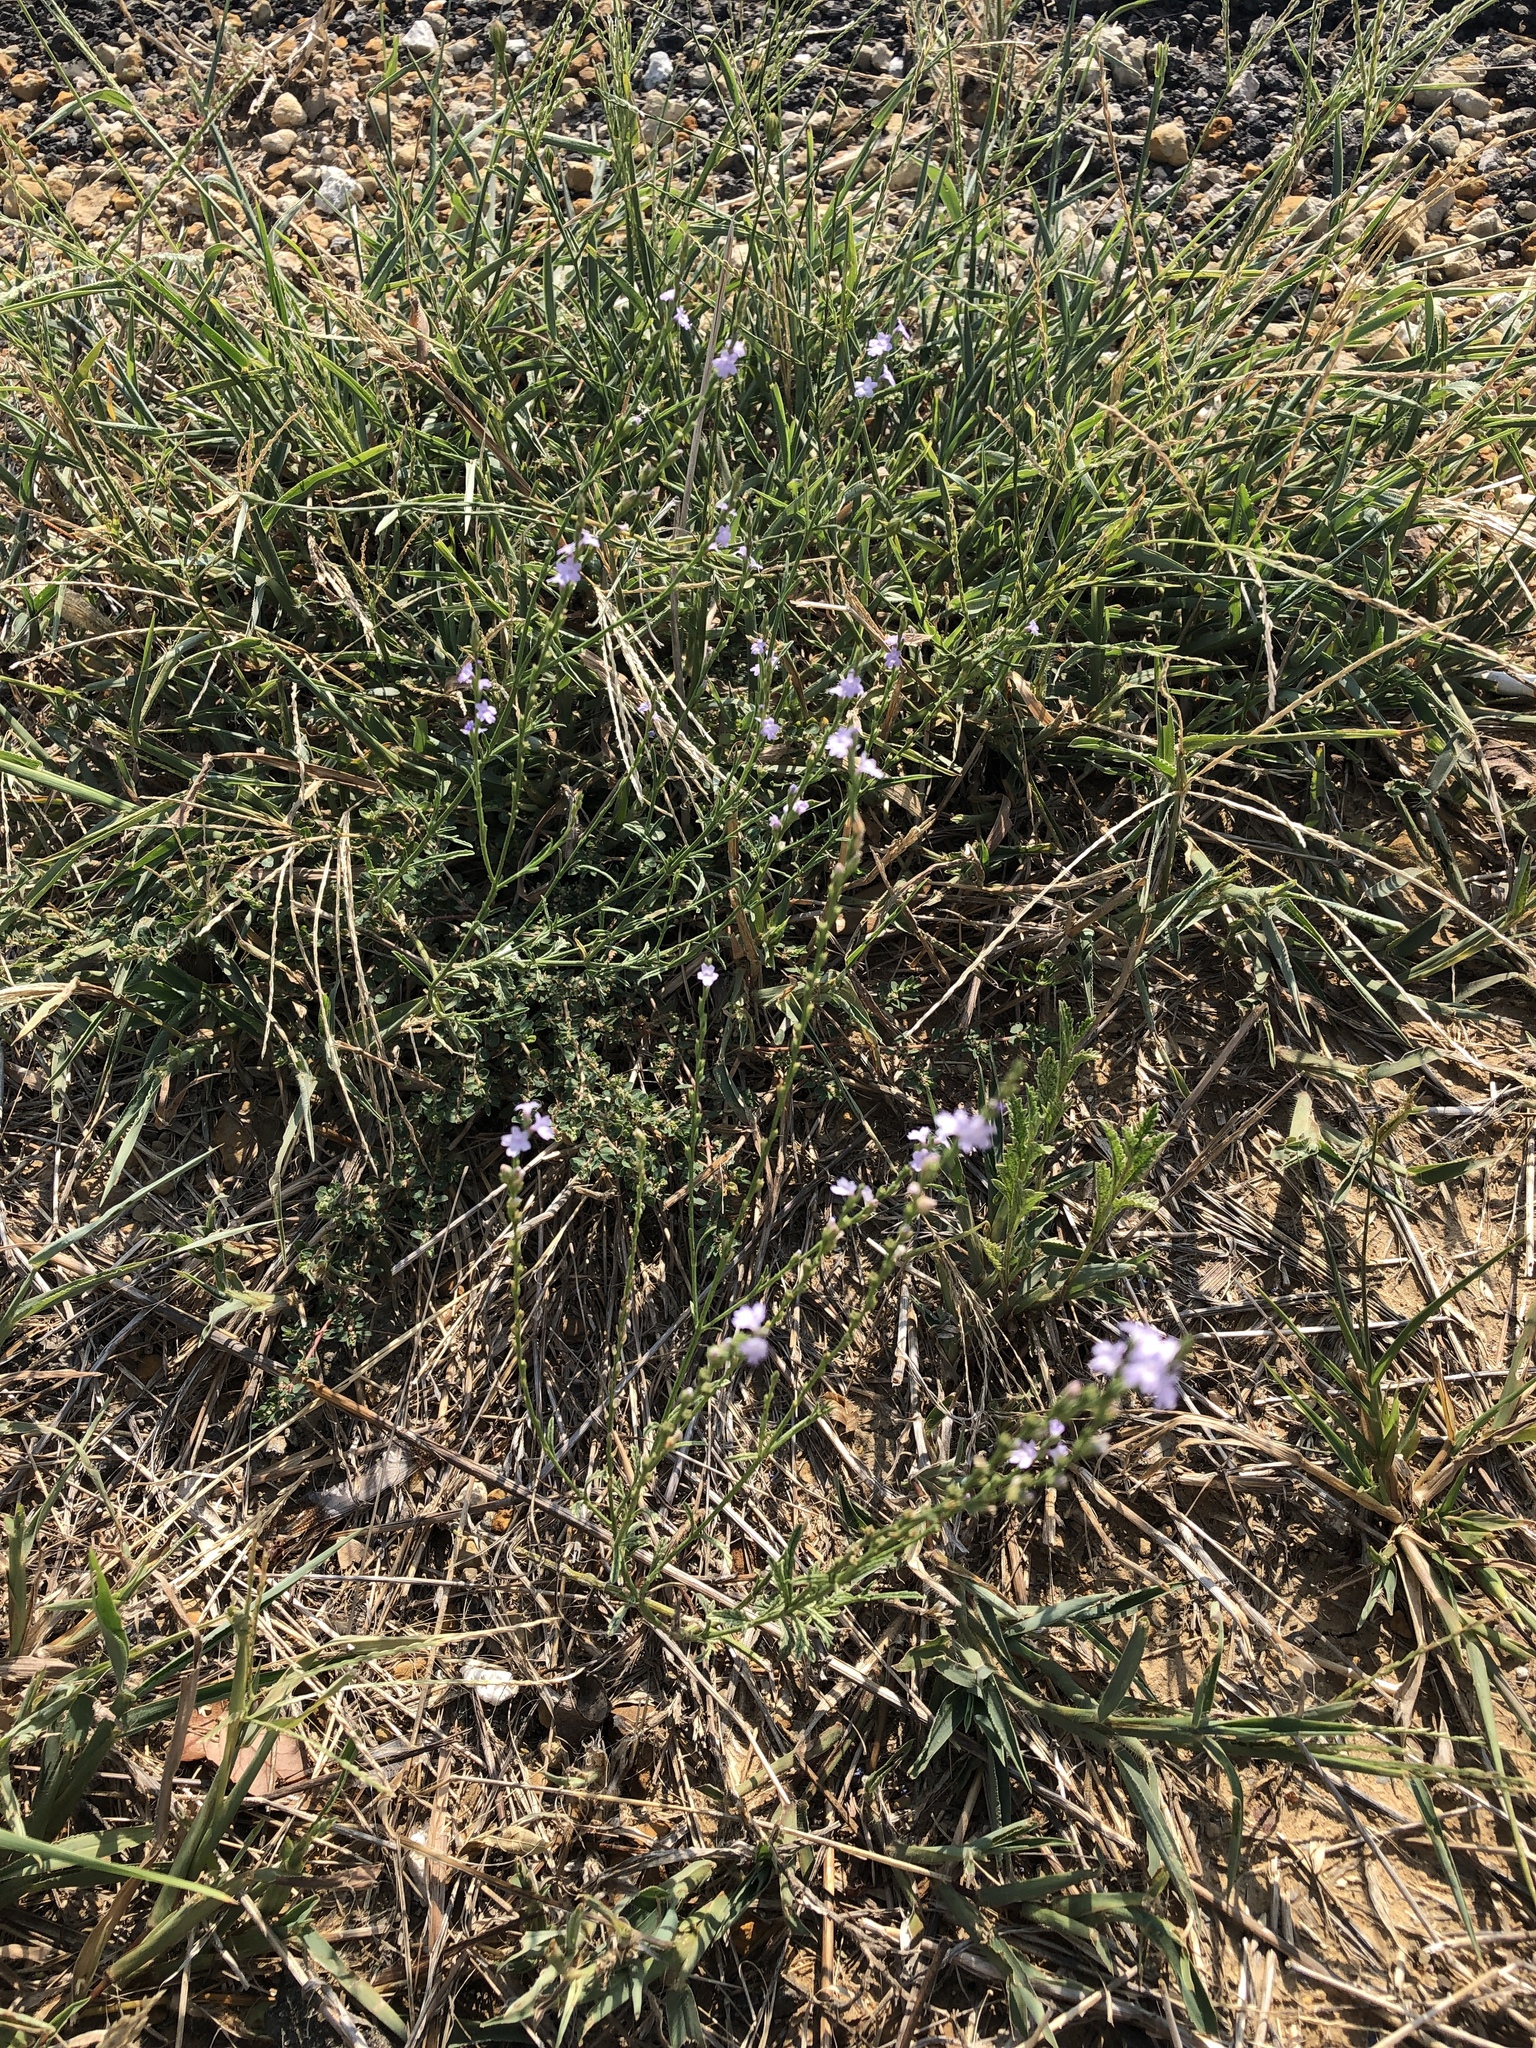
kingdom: Plantae
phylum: Tracheophyta
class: Magnoliopsida
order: Lamiales
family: Verbenaceae
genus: Verbena
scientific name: Verbena halei
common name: Texas vervain
